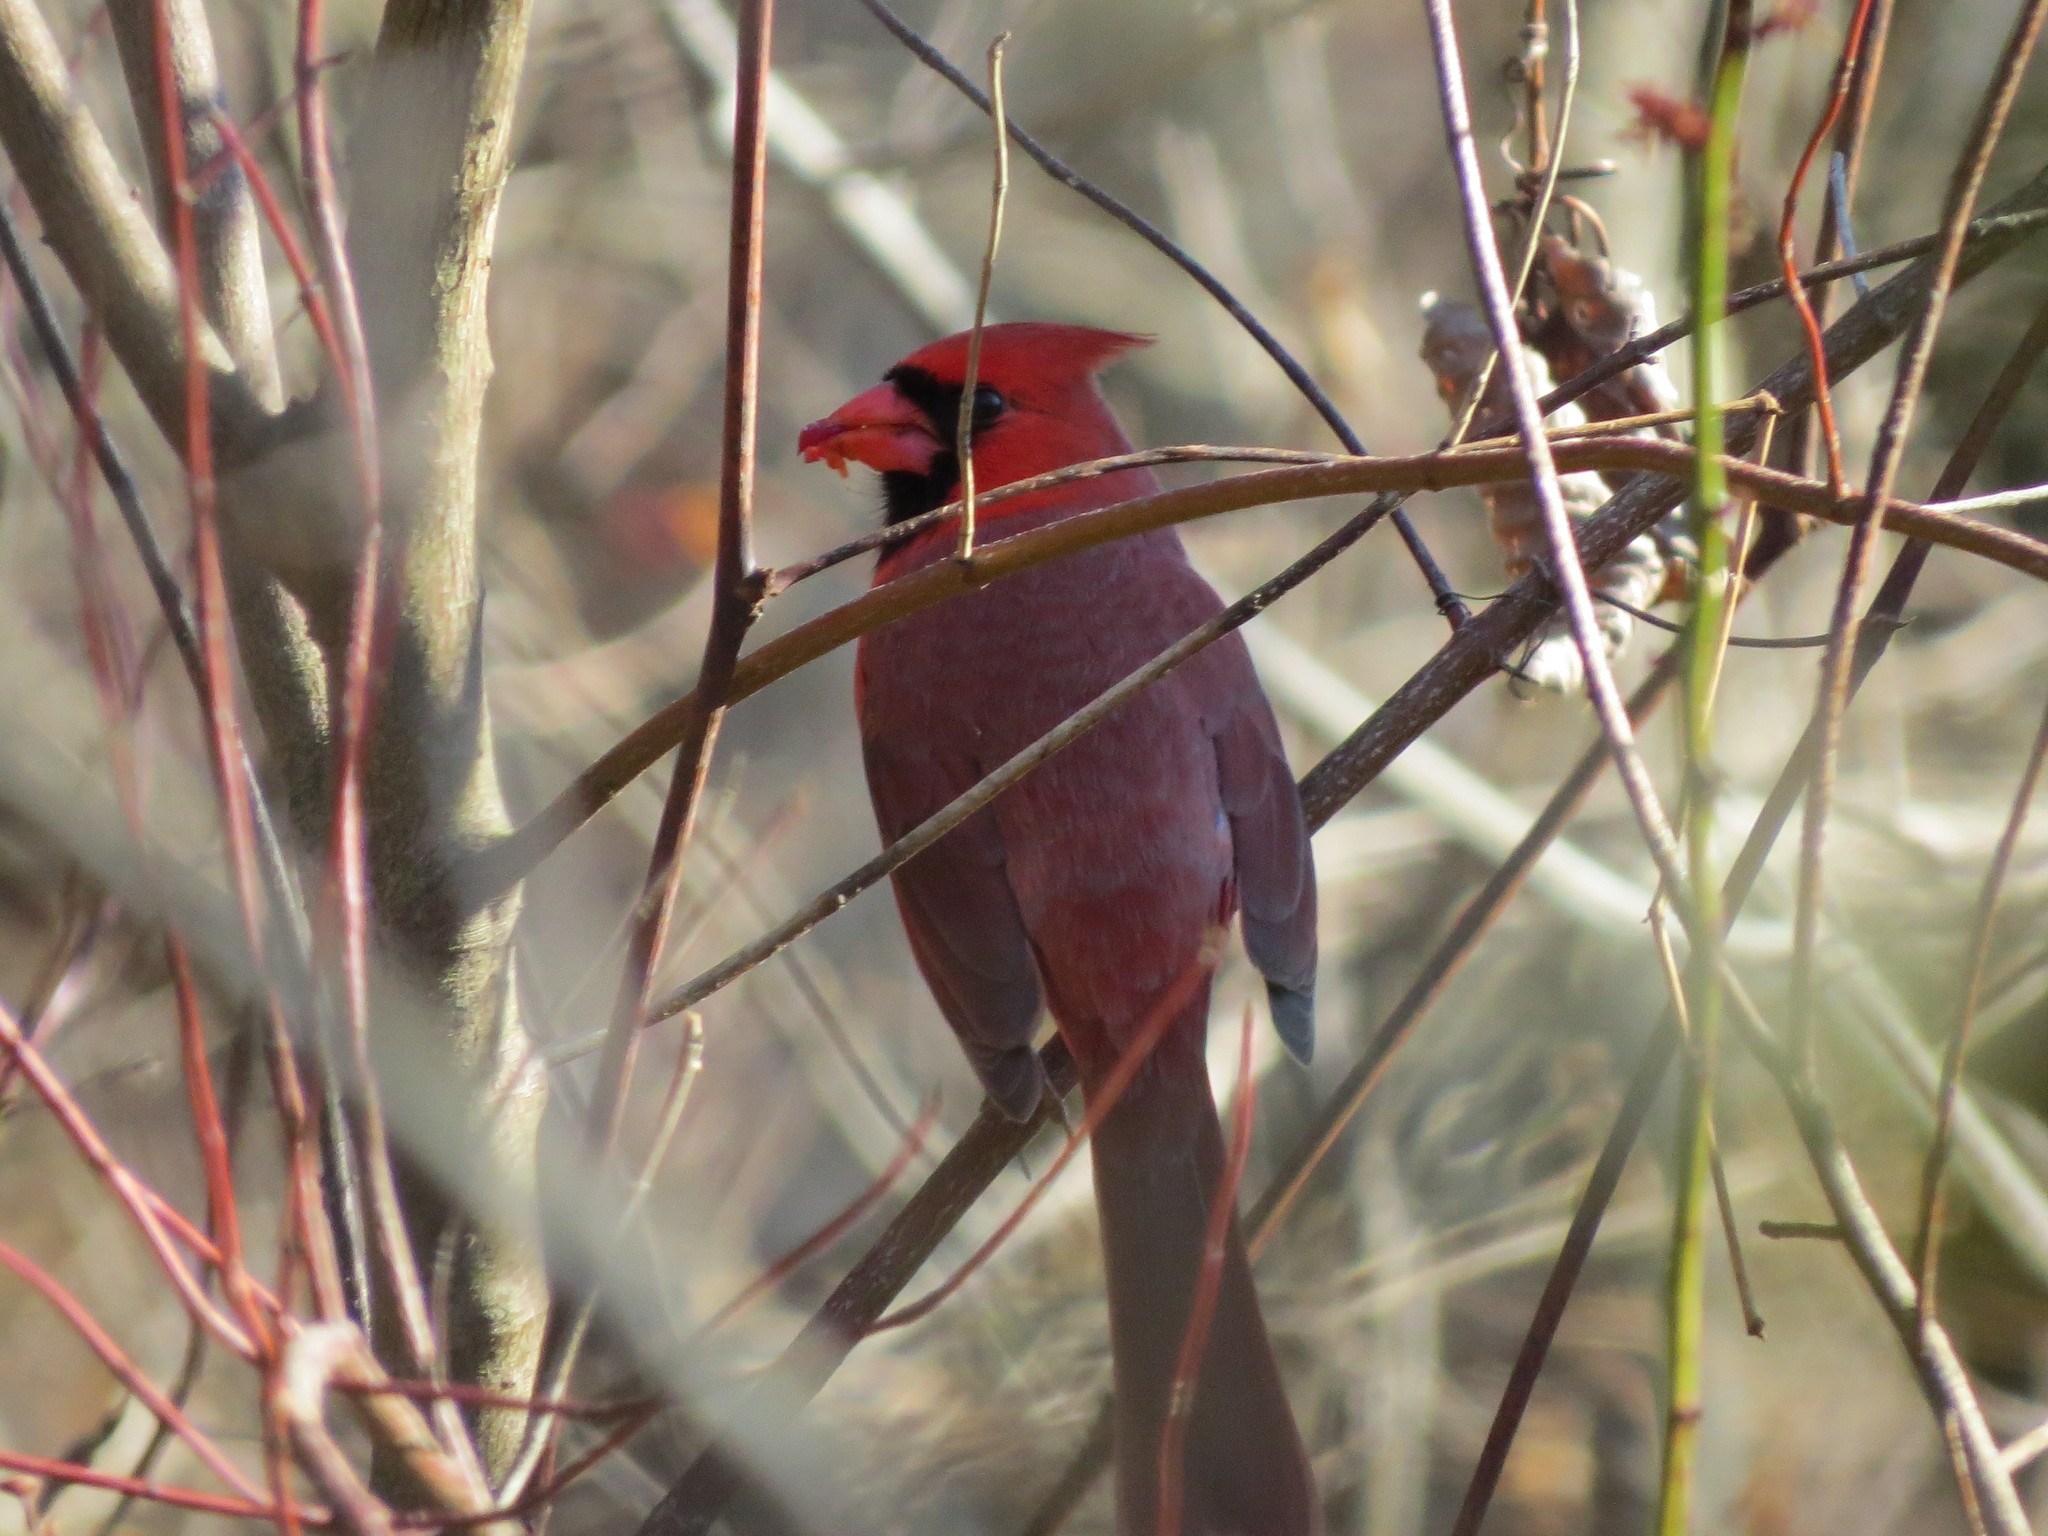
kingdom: Animalia
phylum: Chordata
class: Aves
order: Passeriformes
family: Cardinalidae
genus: Cardinalis
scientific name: Cardinalis cardinalis
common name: Northern cardinal
